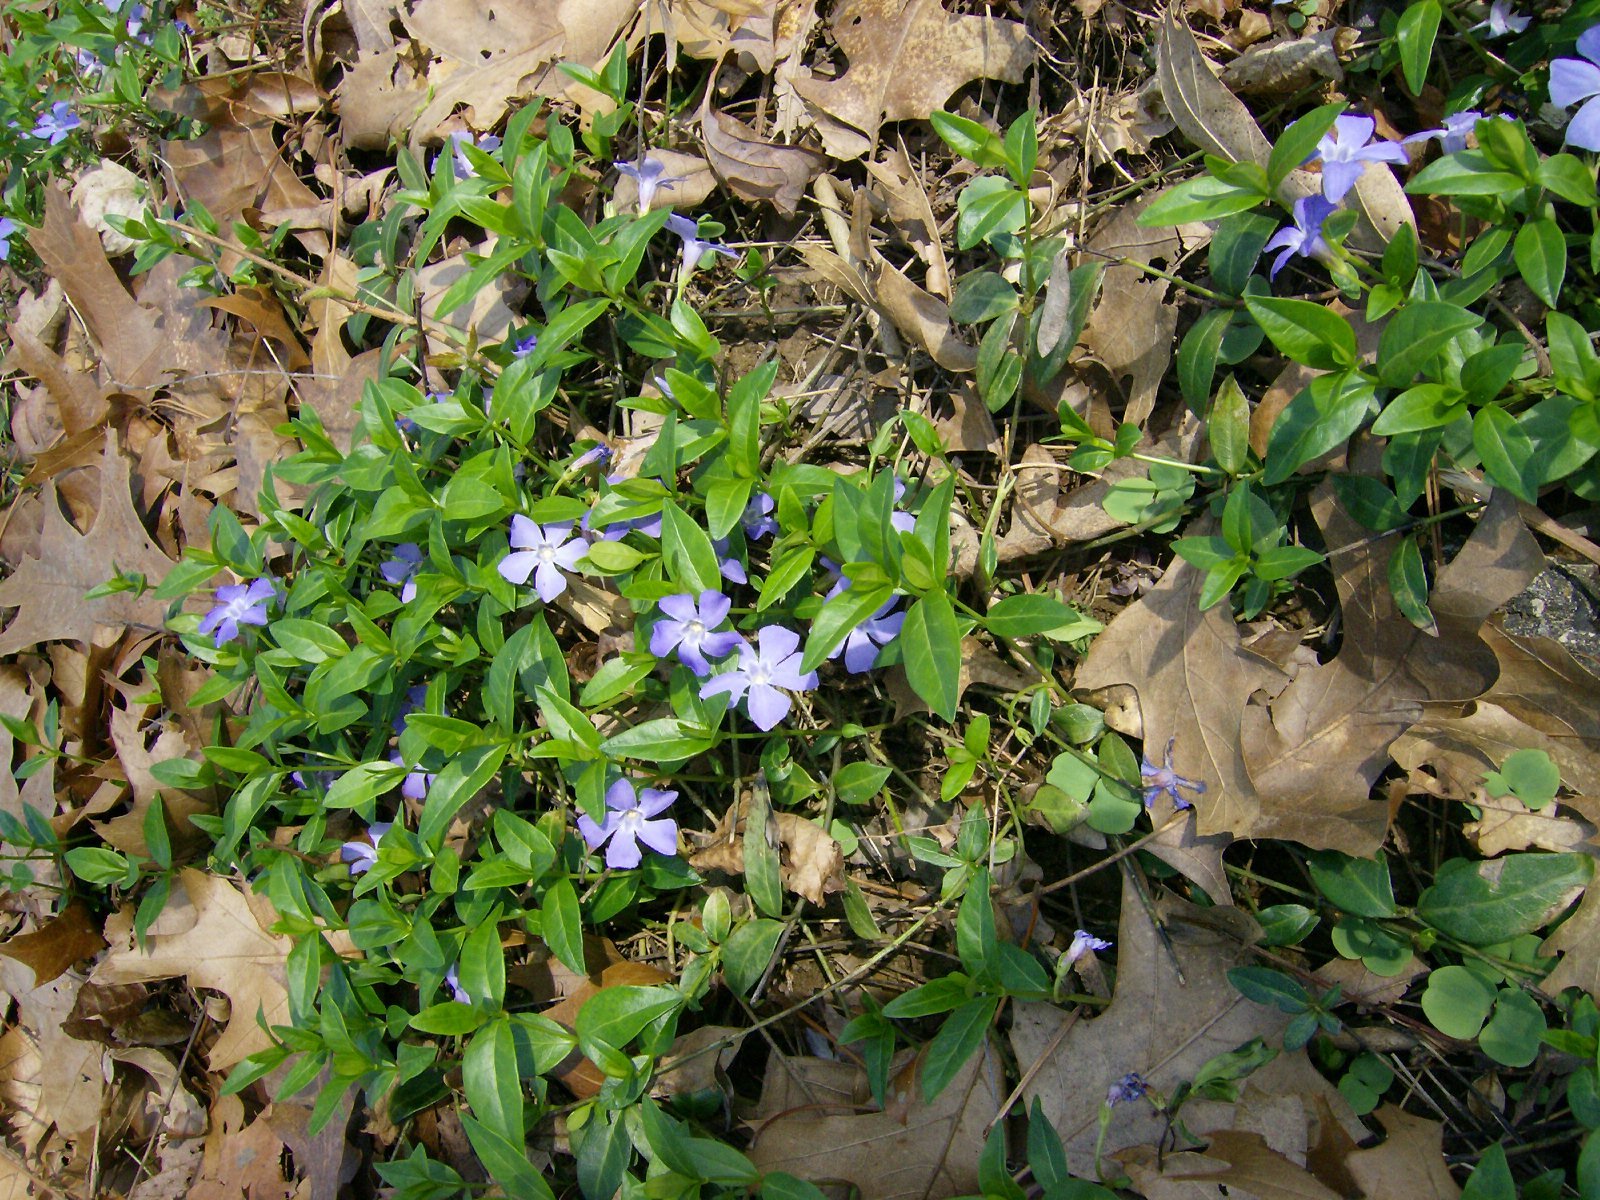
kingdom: Plantae
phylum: Tracheophyta
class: Magnoliopsida
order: Gentianales
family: Apocynaceae
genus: Vinca
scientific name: Vinca minor
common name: Lesser periwinkle
